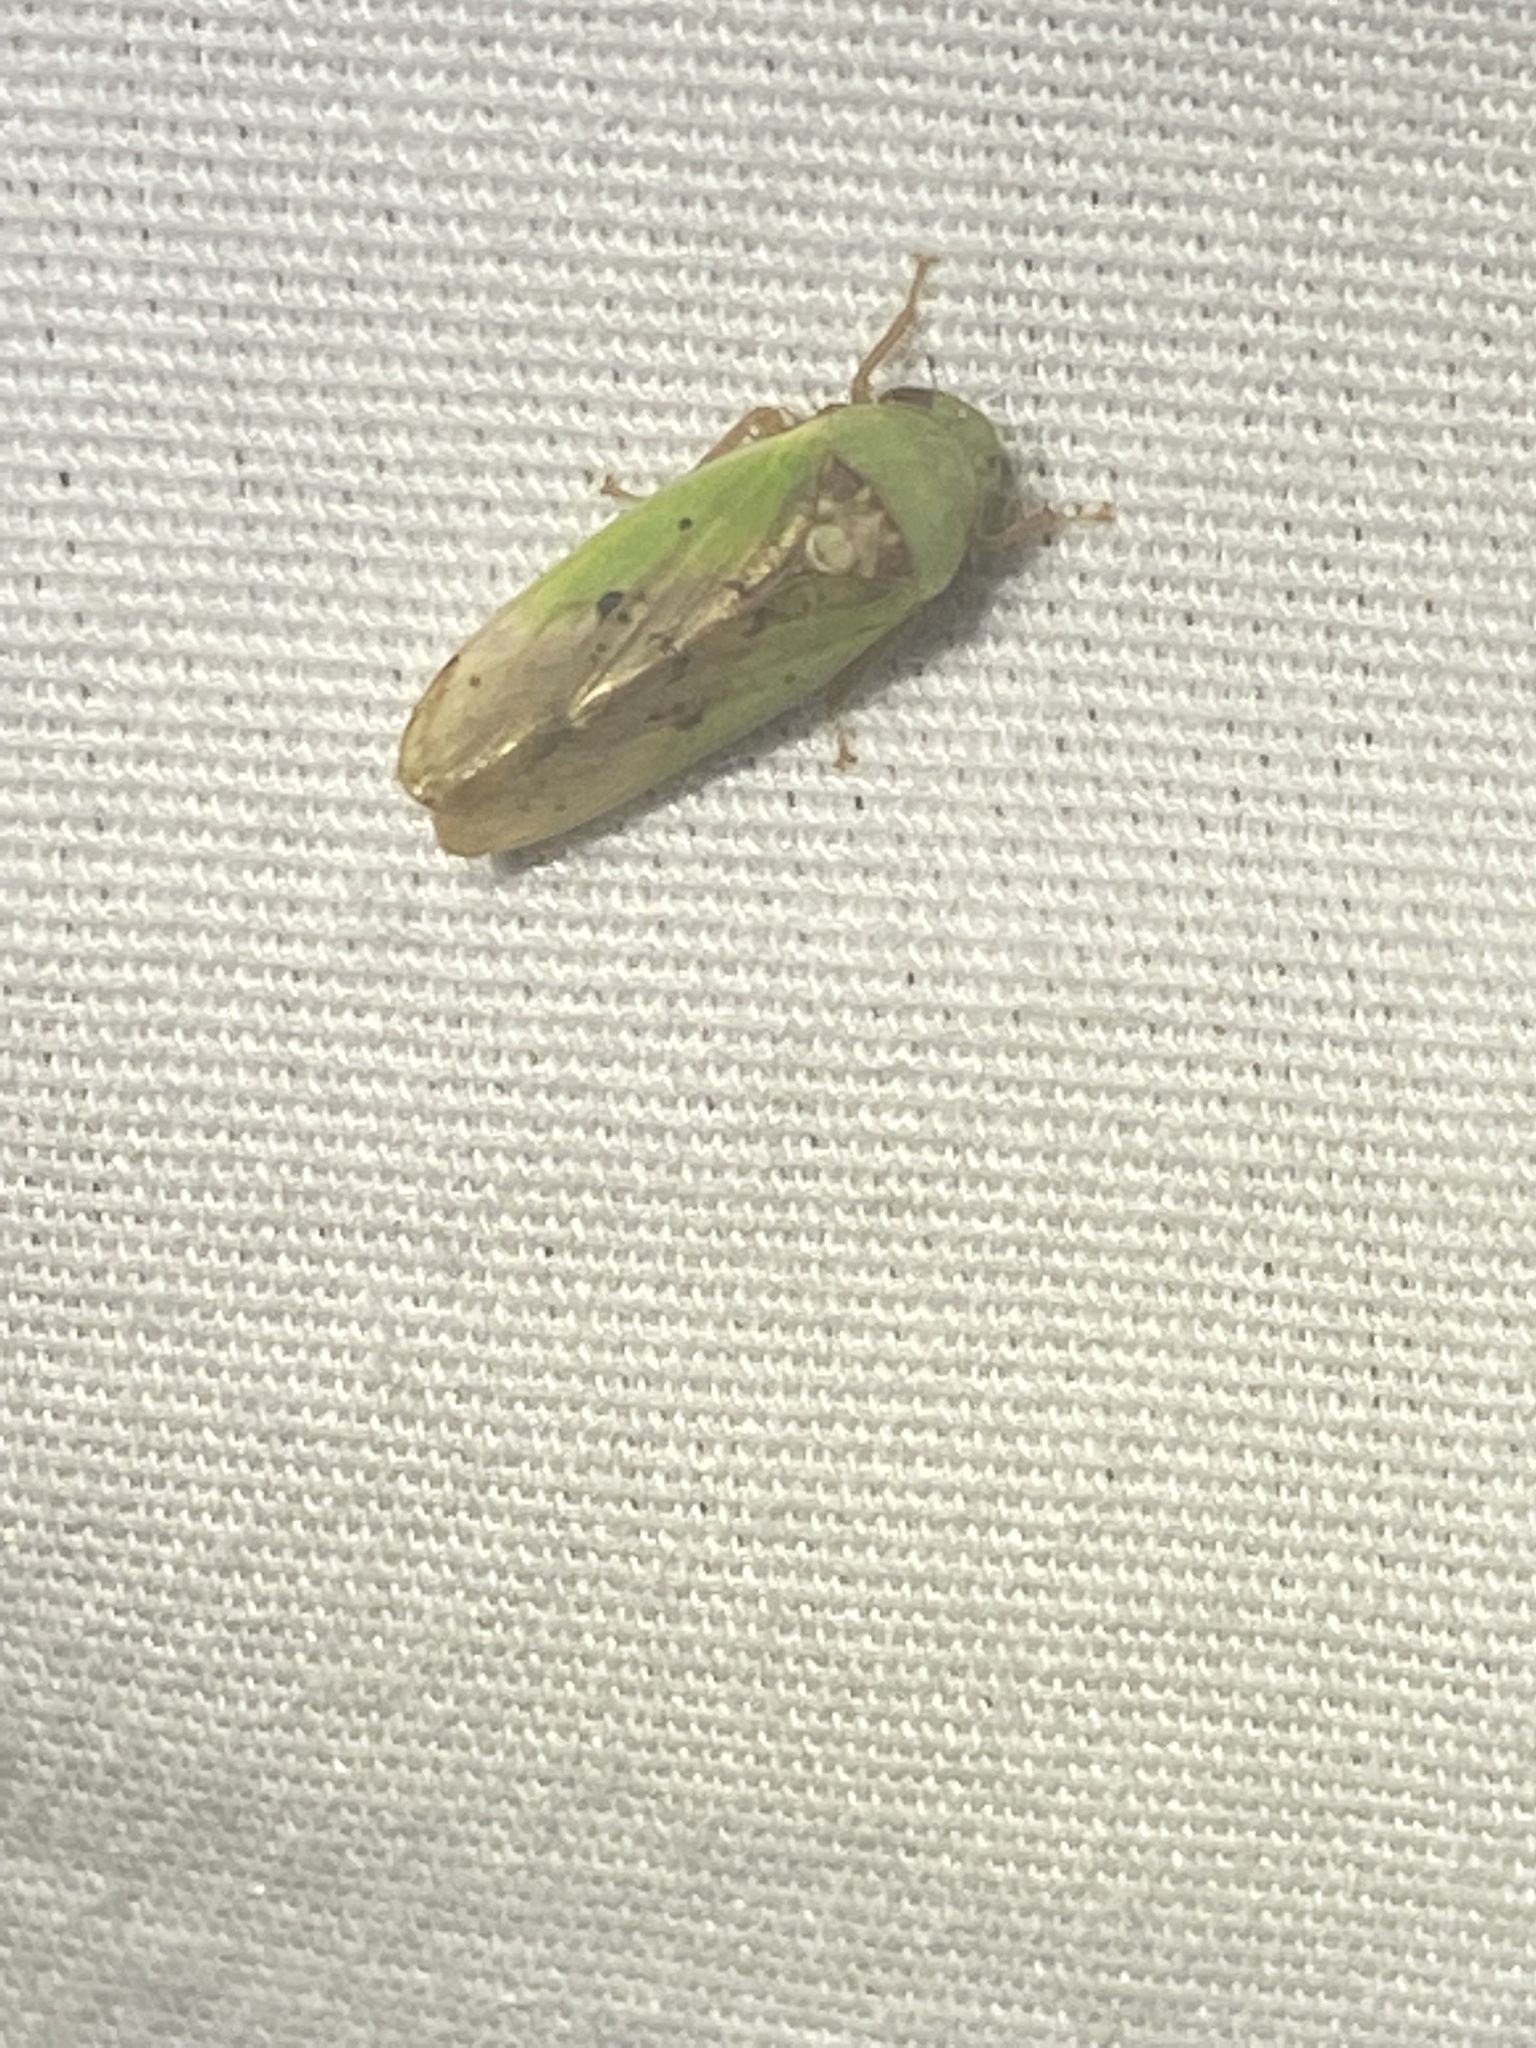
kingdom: Animalia
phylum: Arthropoda
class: Insecta
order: Hemiptera
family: Cicadellidae
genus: Ponana
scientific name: Ponana pectoralis
